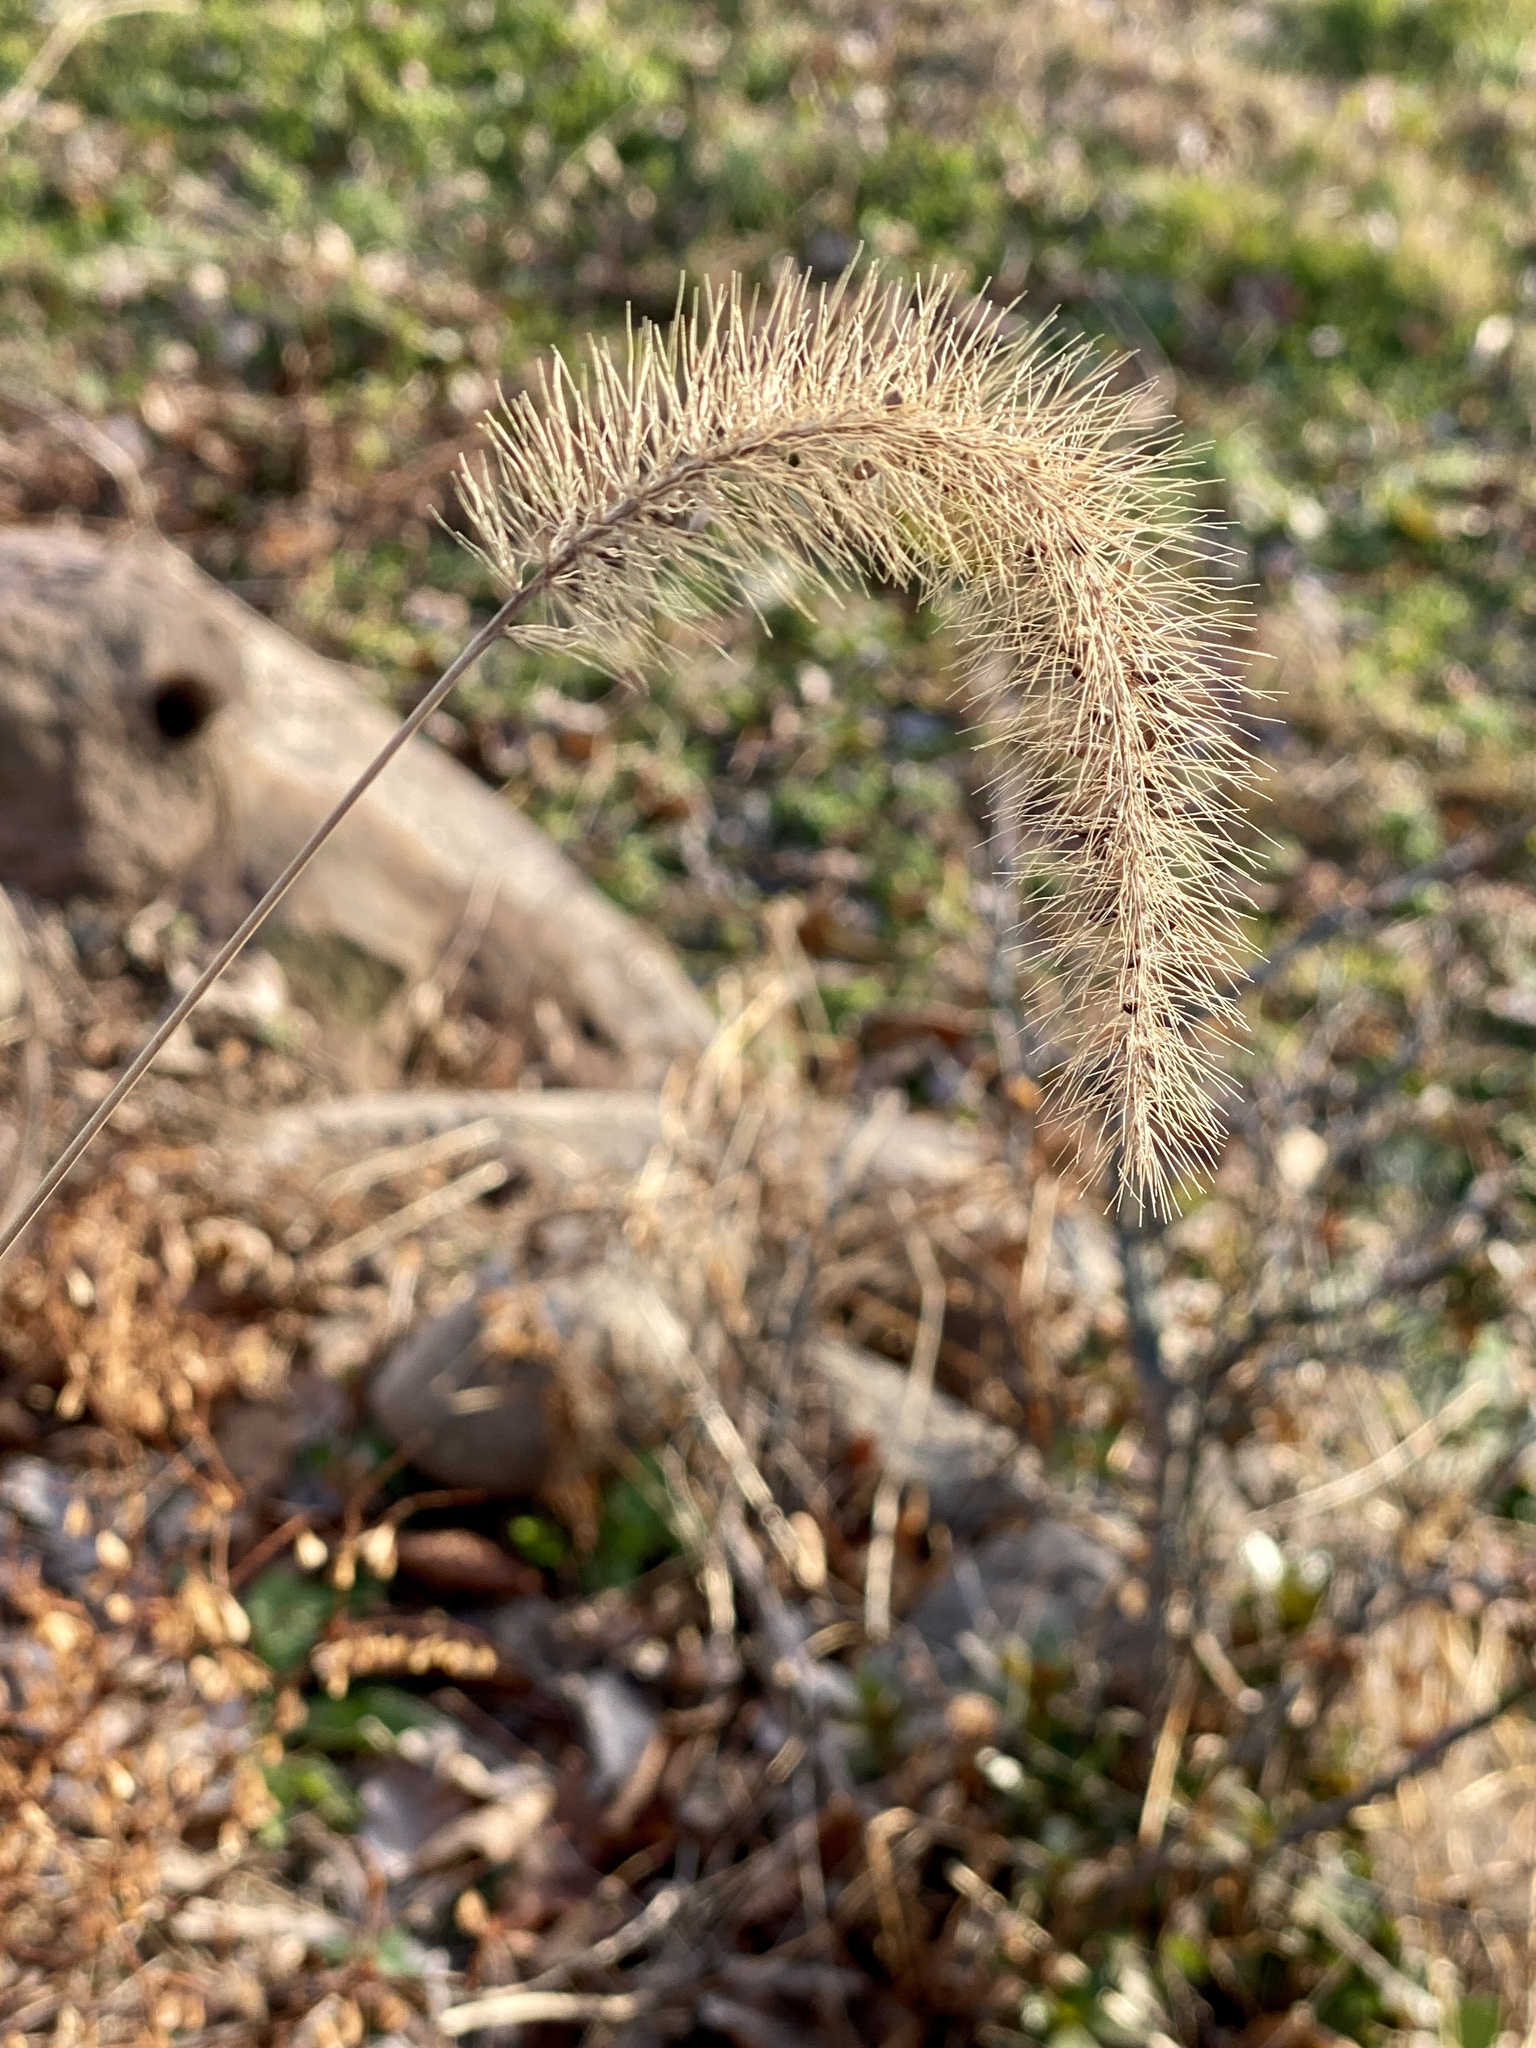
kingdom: Plantae
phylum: Tracheophyta
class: Liliopsida
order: Poales
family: Poaceae
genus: Setaria
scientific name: Setaria faberi
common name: Nodding bristle-grass
